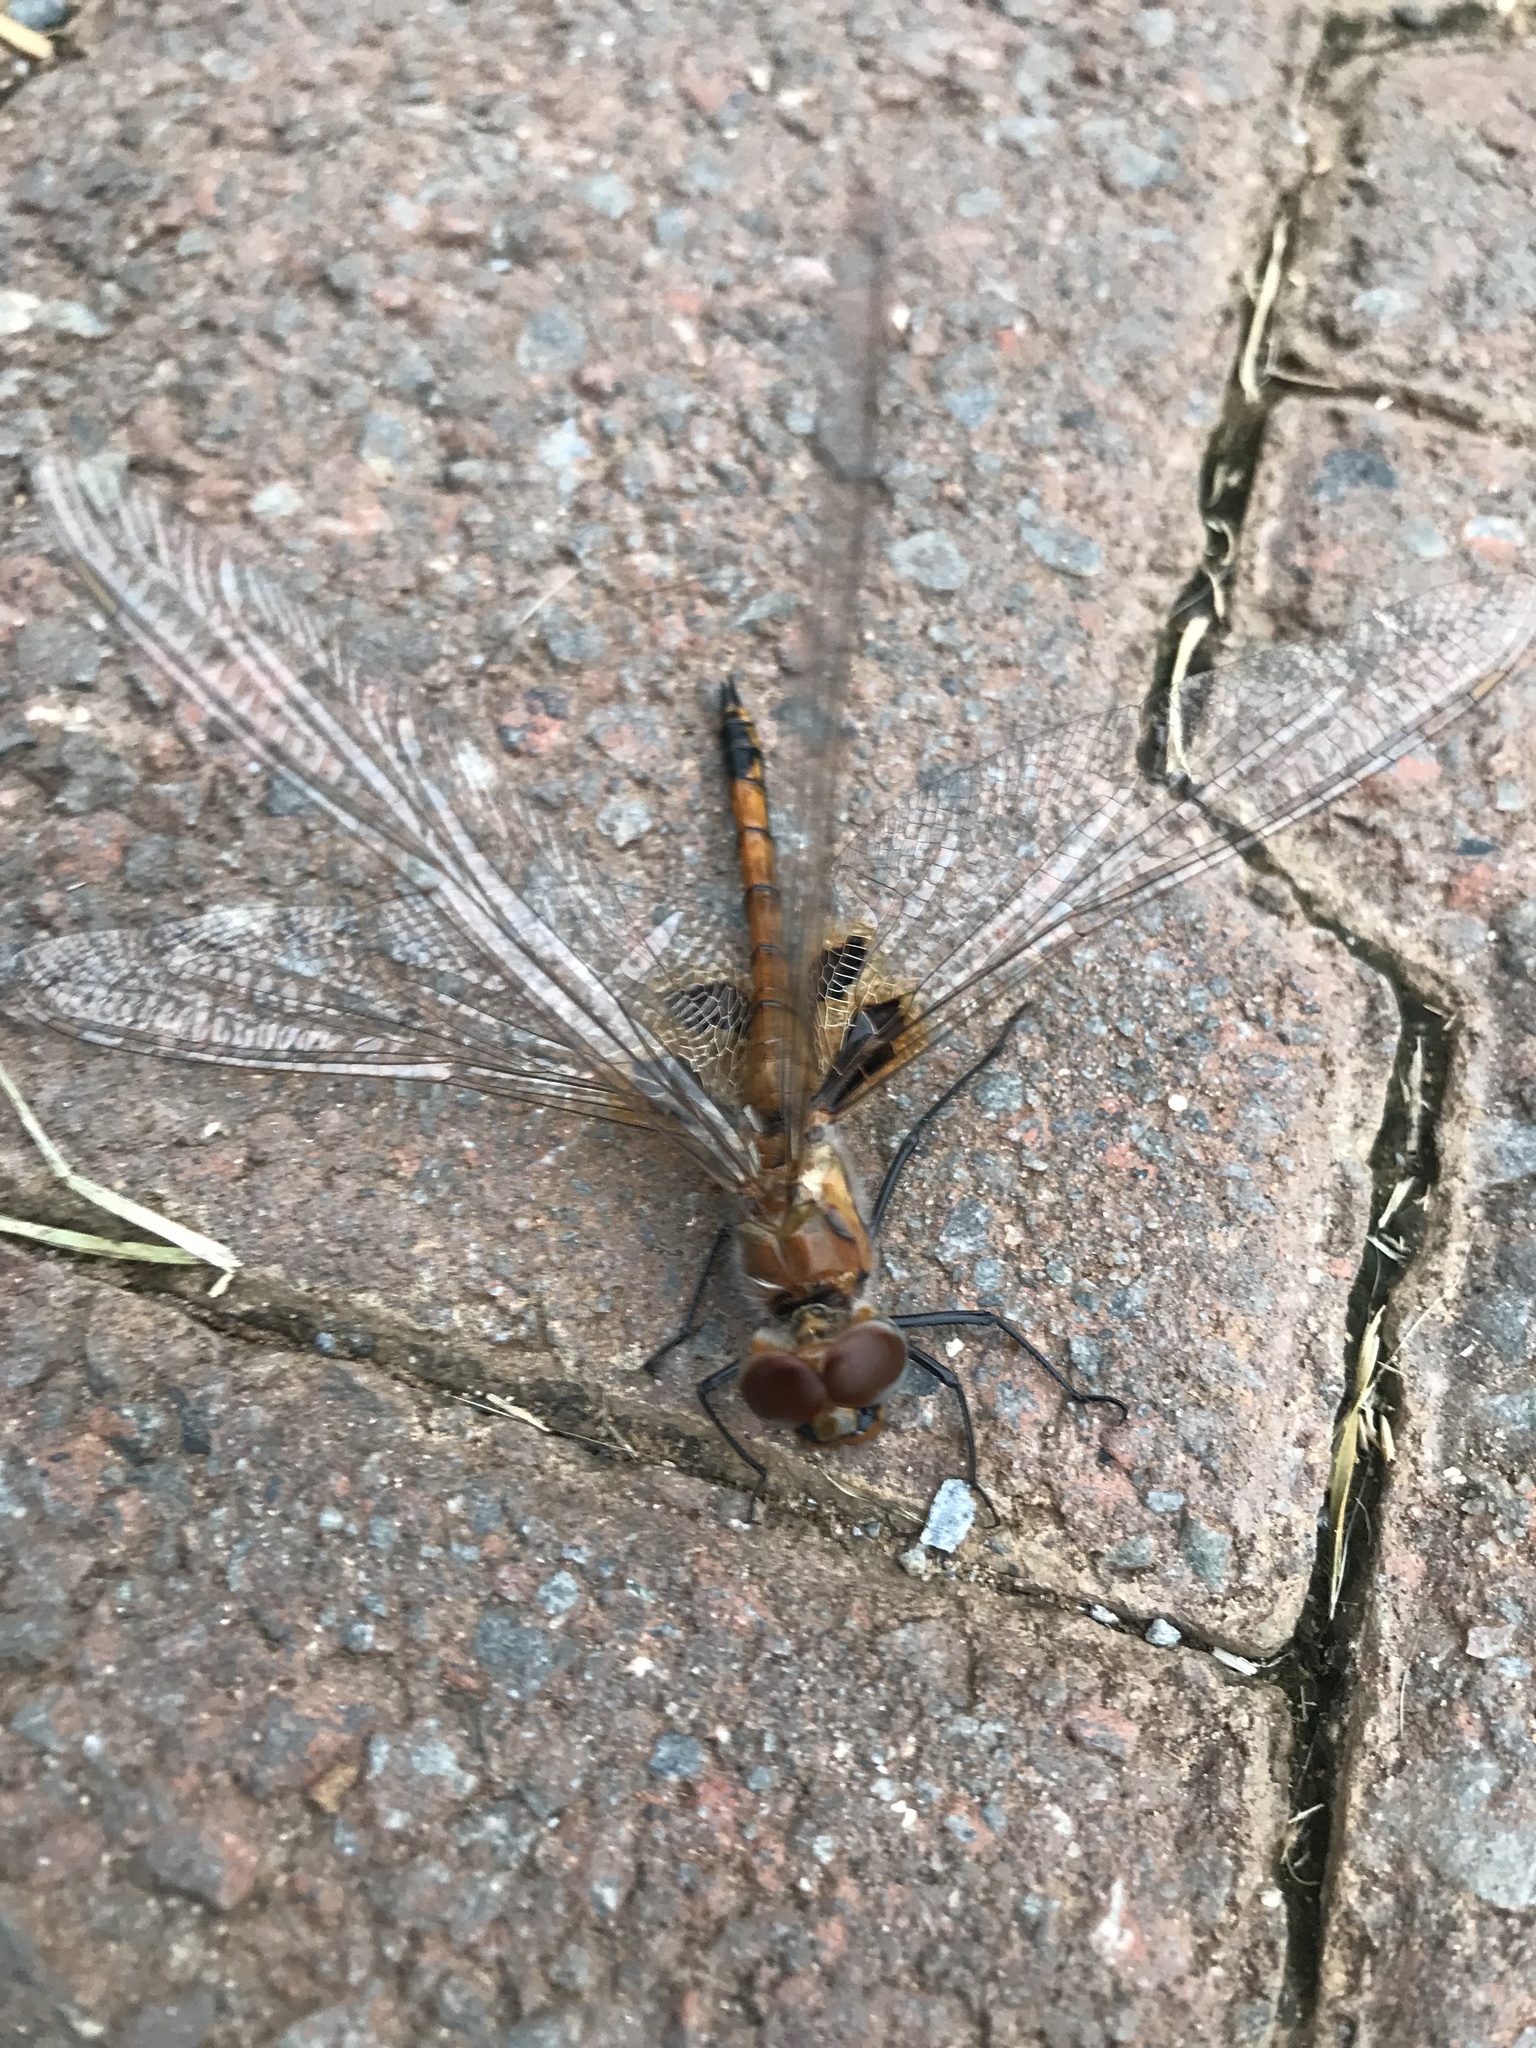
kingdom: Animalia
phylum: Arthropoda
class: Insecta
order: Odonata
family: Libellulidae
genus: Tramea
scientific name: Tramea basilaris
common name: Keyhole glider
